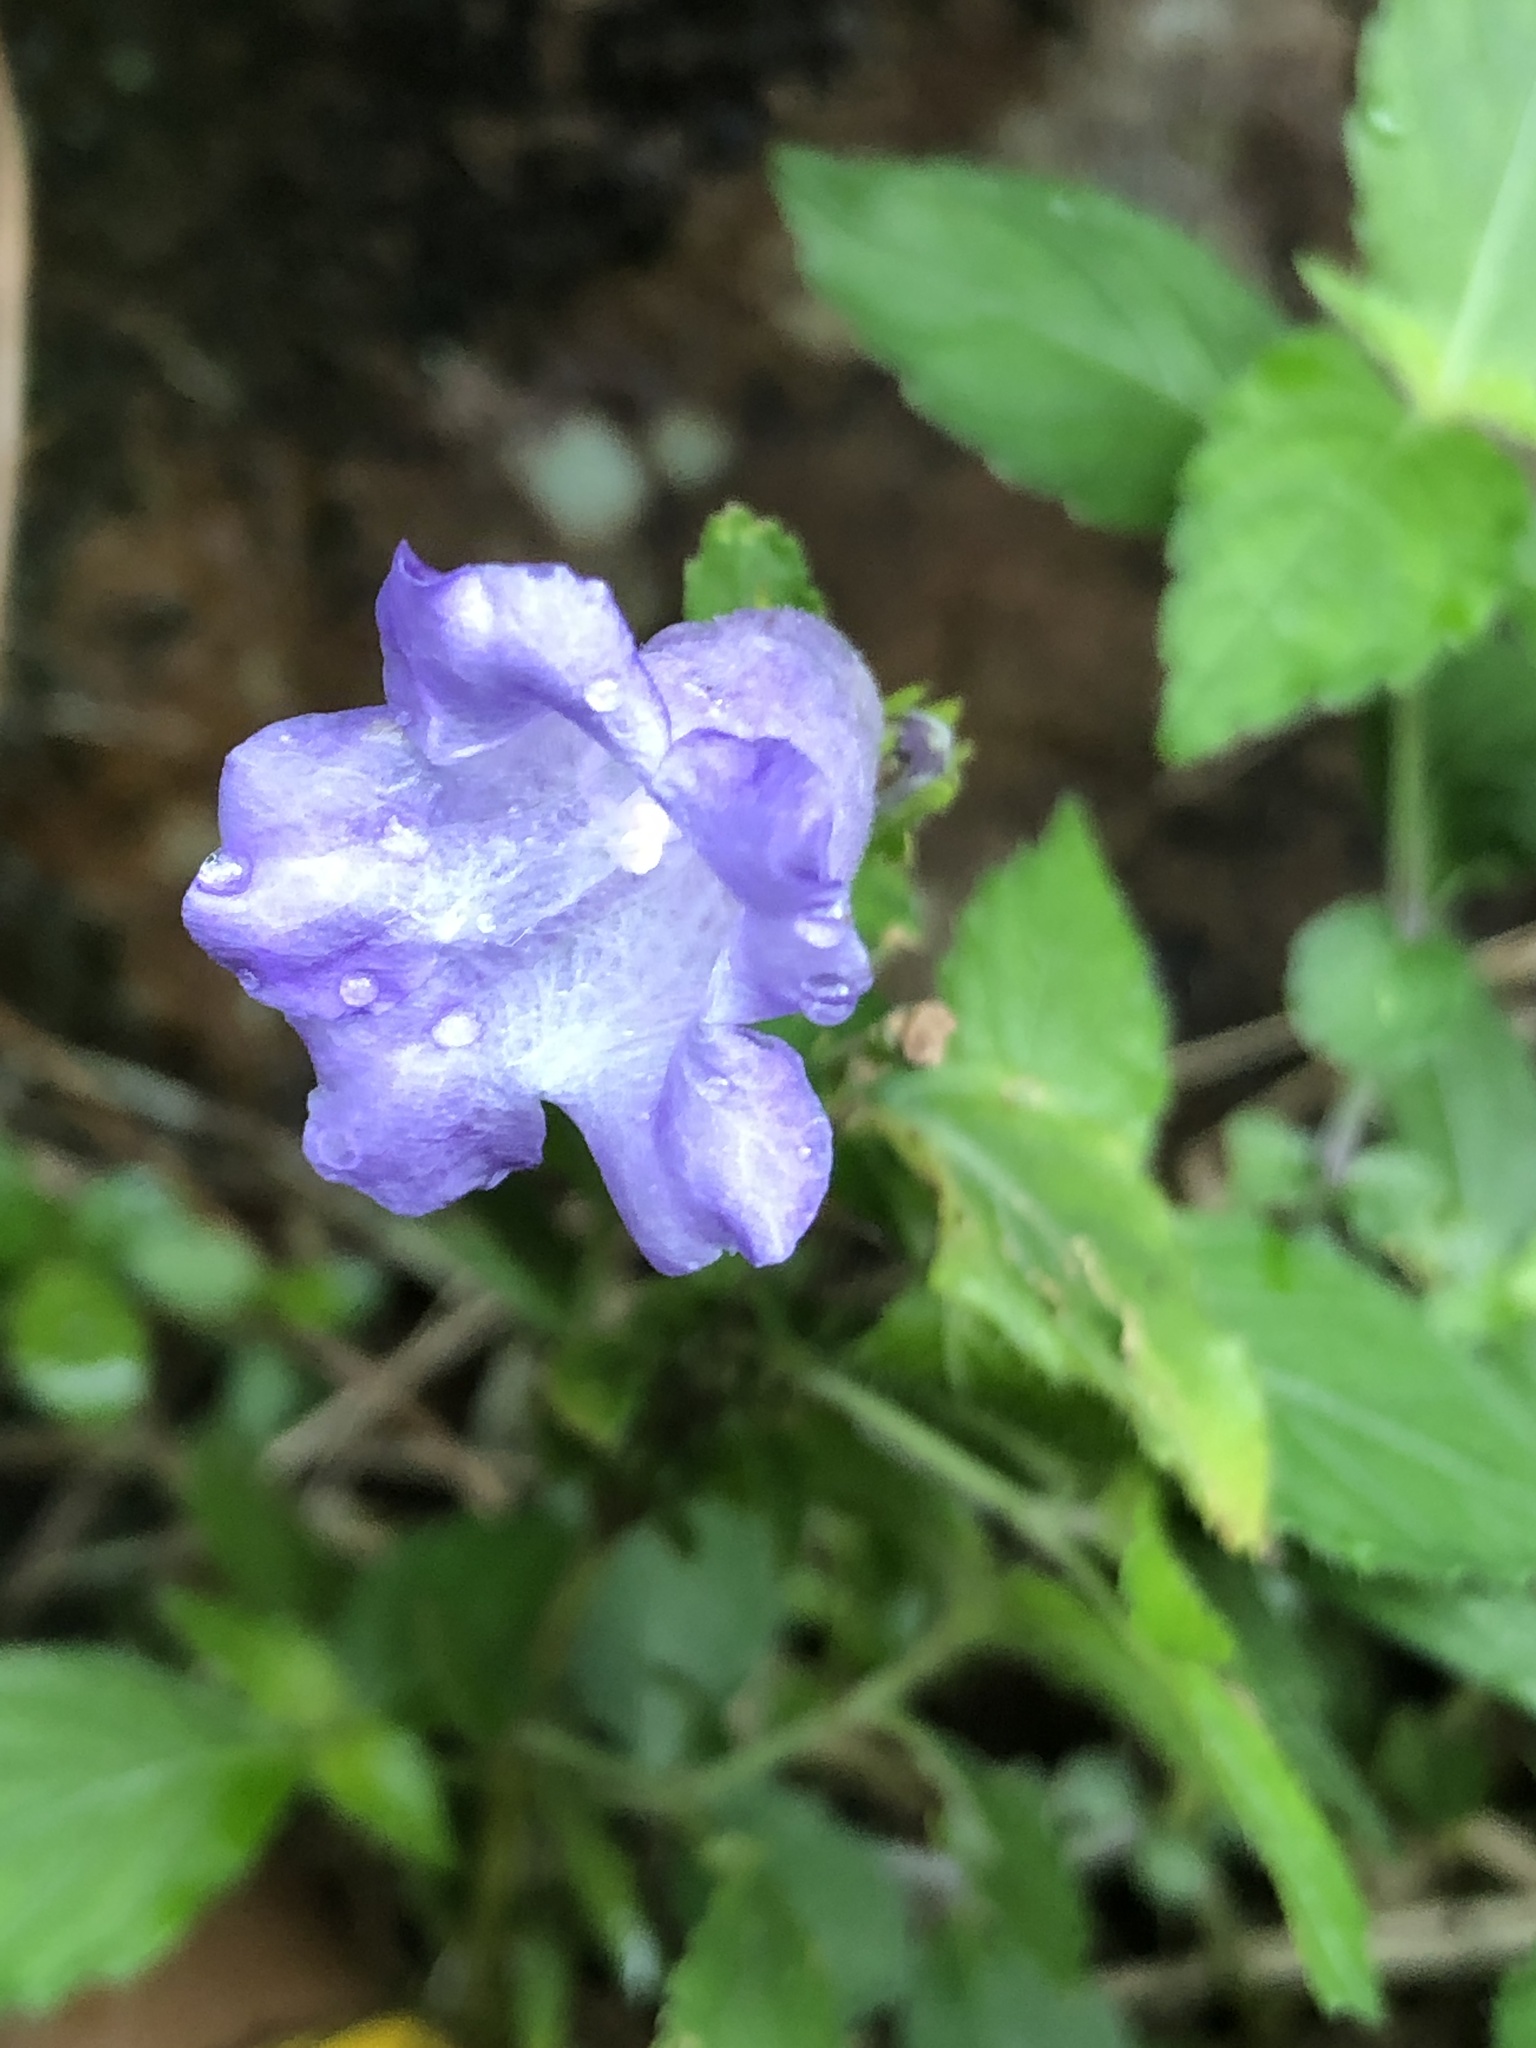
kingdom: Plantae
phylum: Tracheophyta
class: Magnoliopsida
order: Lamiales
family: Acanthaceae
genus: Strobilanthes
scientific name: Strobilanthes formosana
